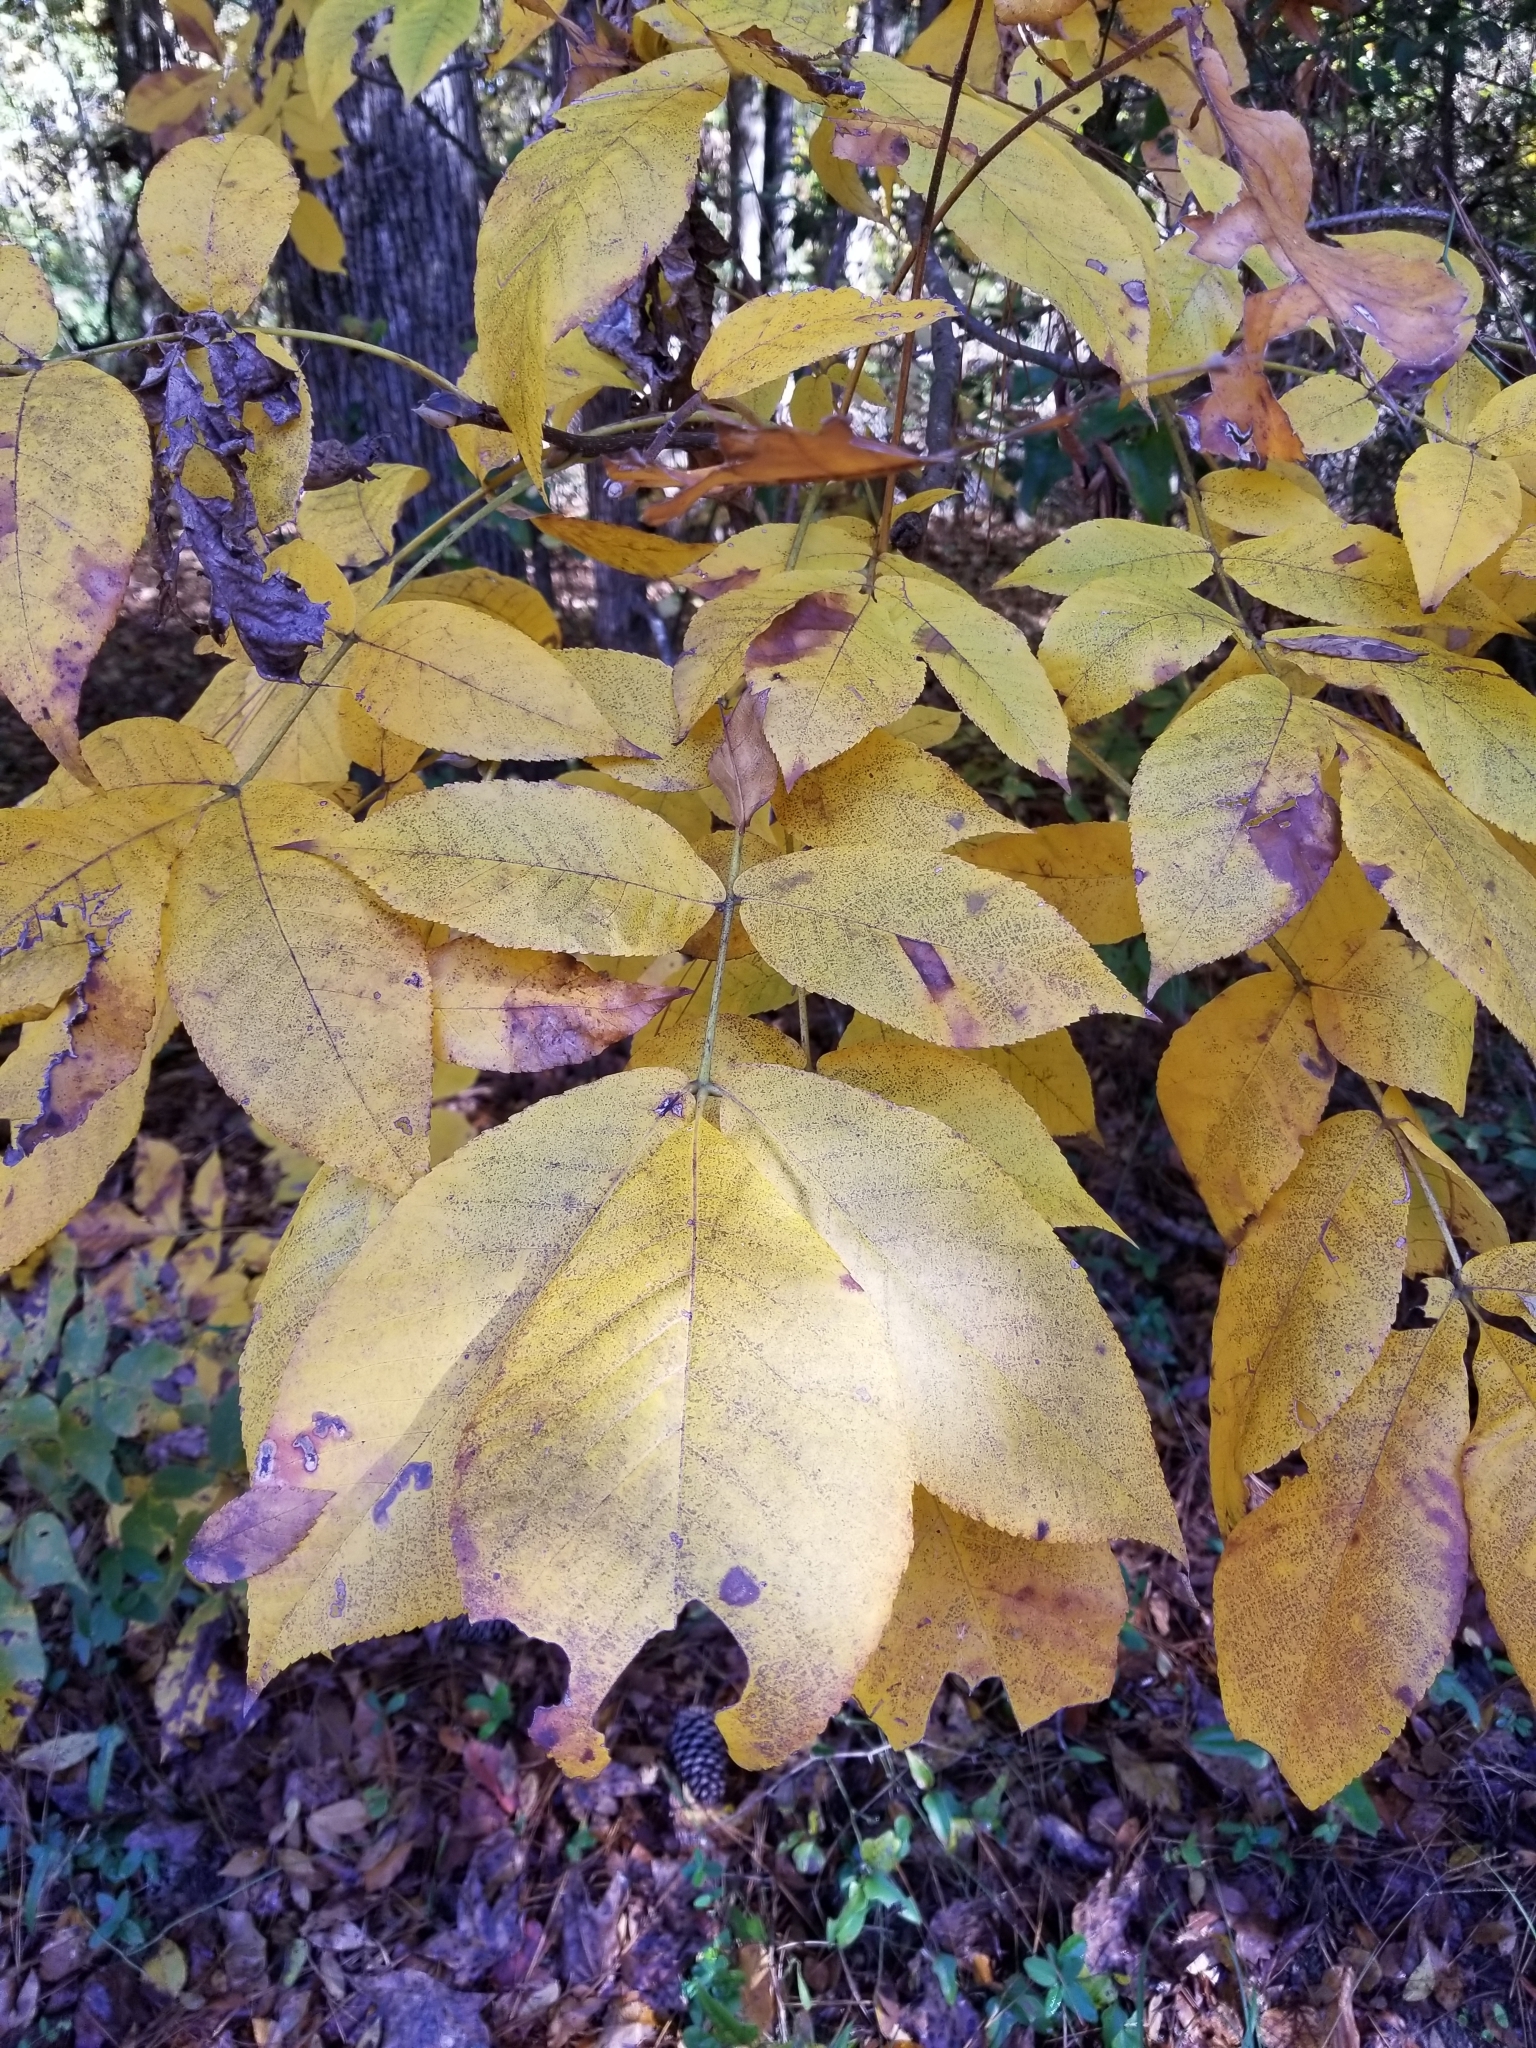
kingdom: Plantae
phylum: Tracheophyta
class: Magnoliopsida
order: Fagales
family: Juglandaceae
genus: Carya
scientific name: Carya alba
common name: Mockernut hickory
